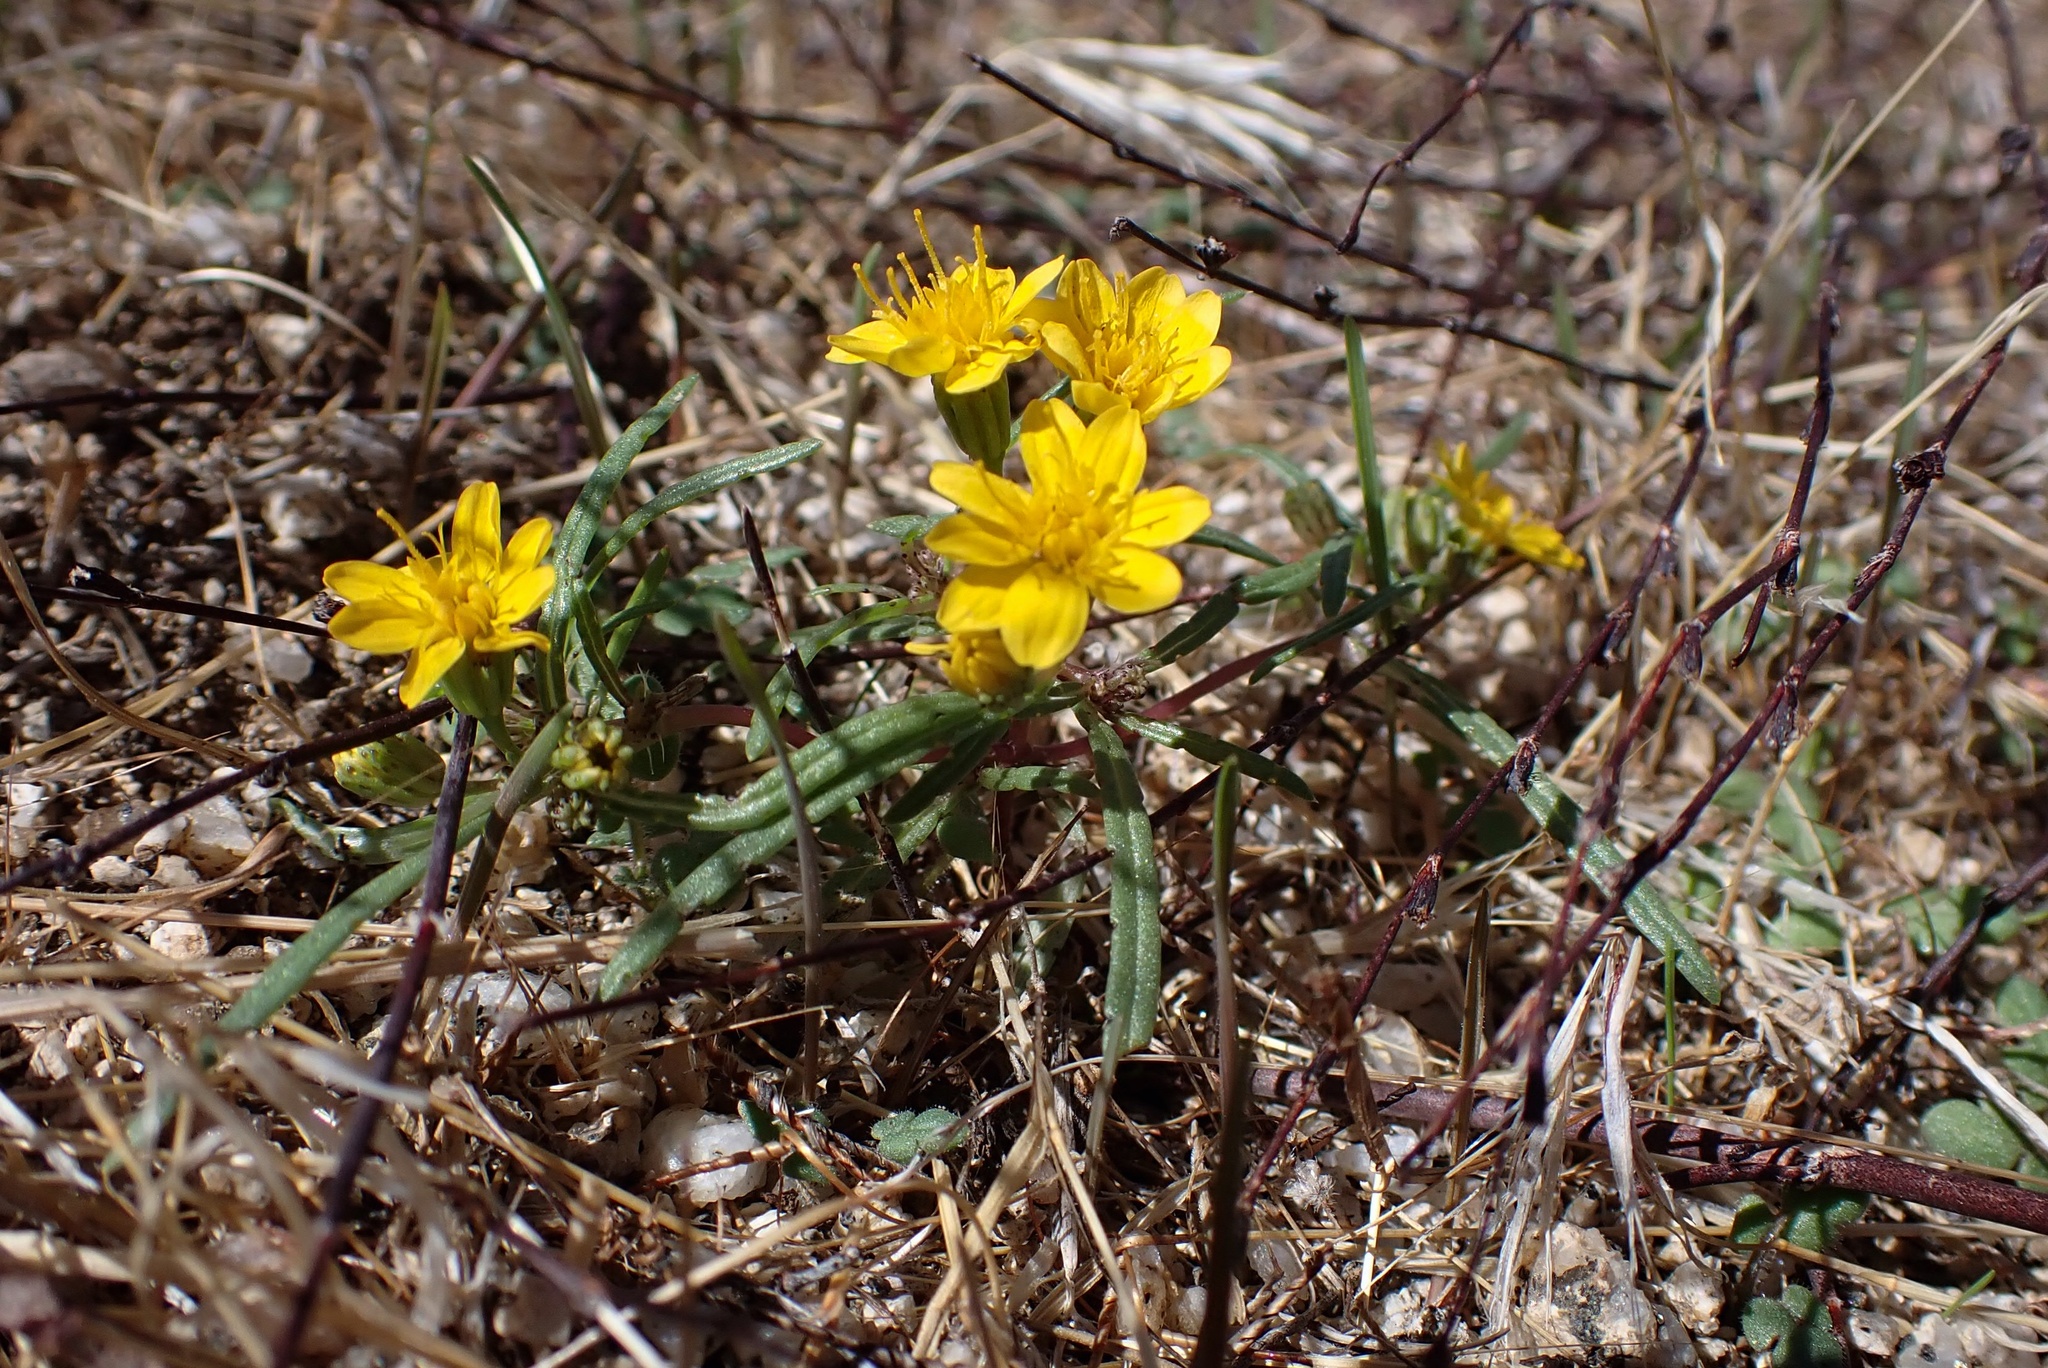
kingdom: Plantae
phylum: Tracheophyta
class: Magnoliopsida
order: Asterales
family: Asteraceae
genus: Pectis
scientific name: Pectis papposa
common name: Many-bristle chinchweed
